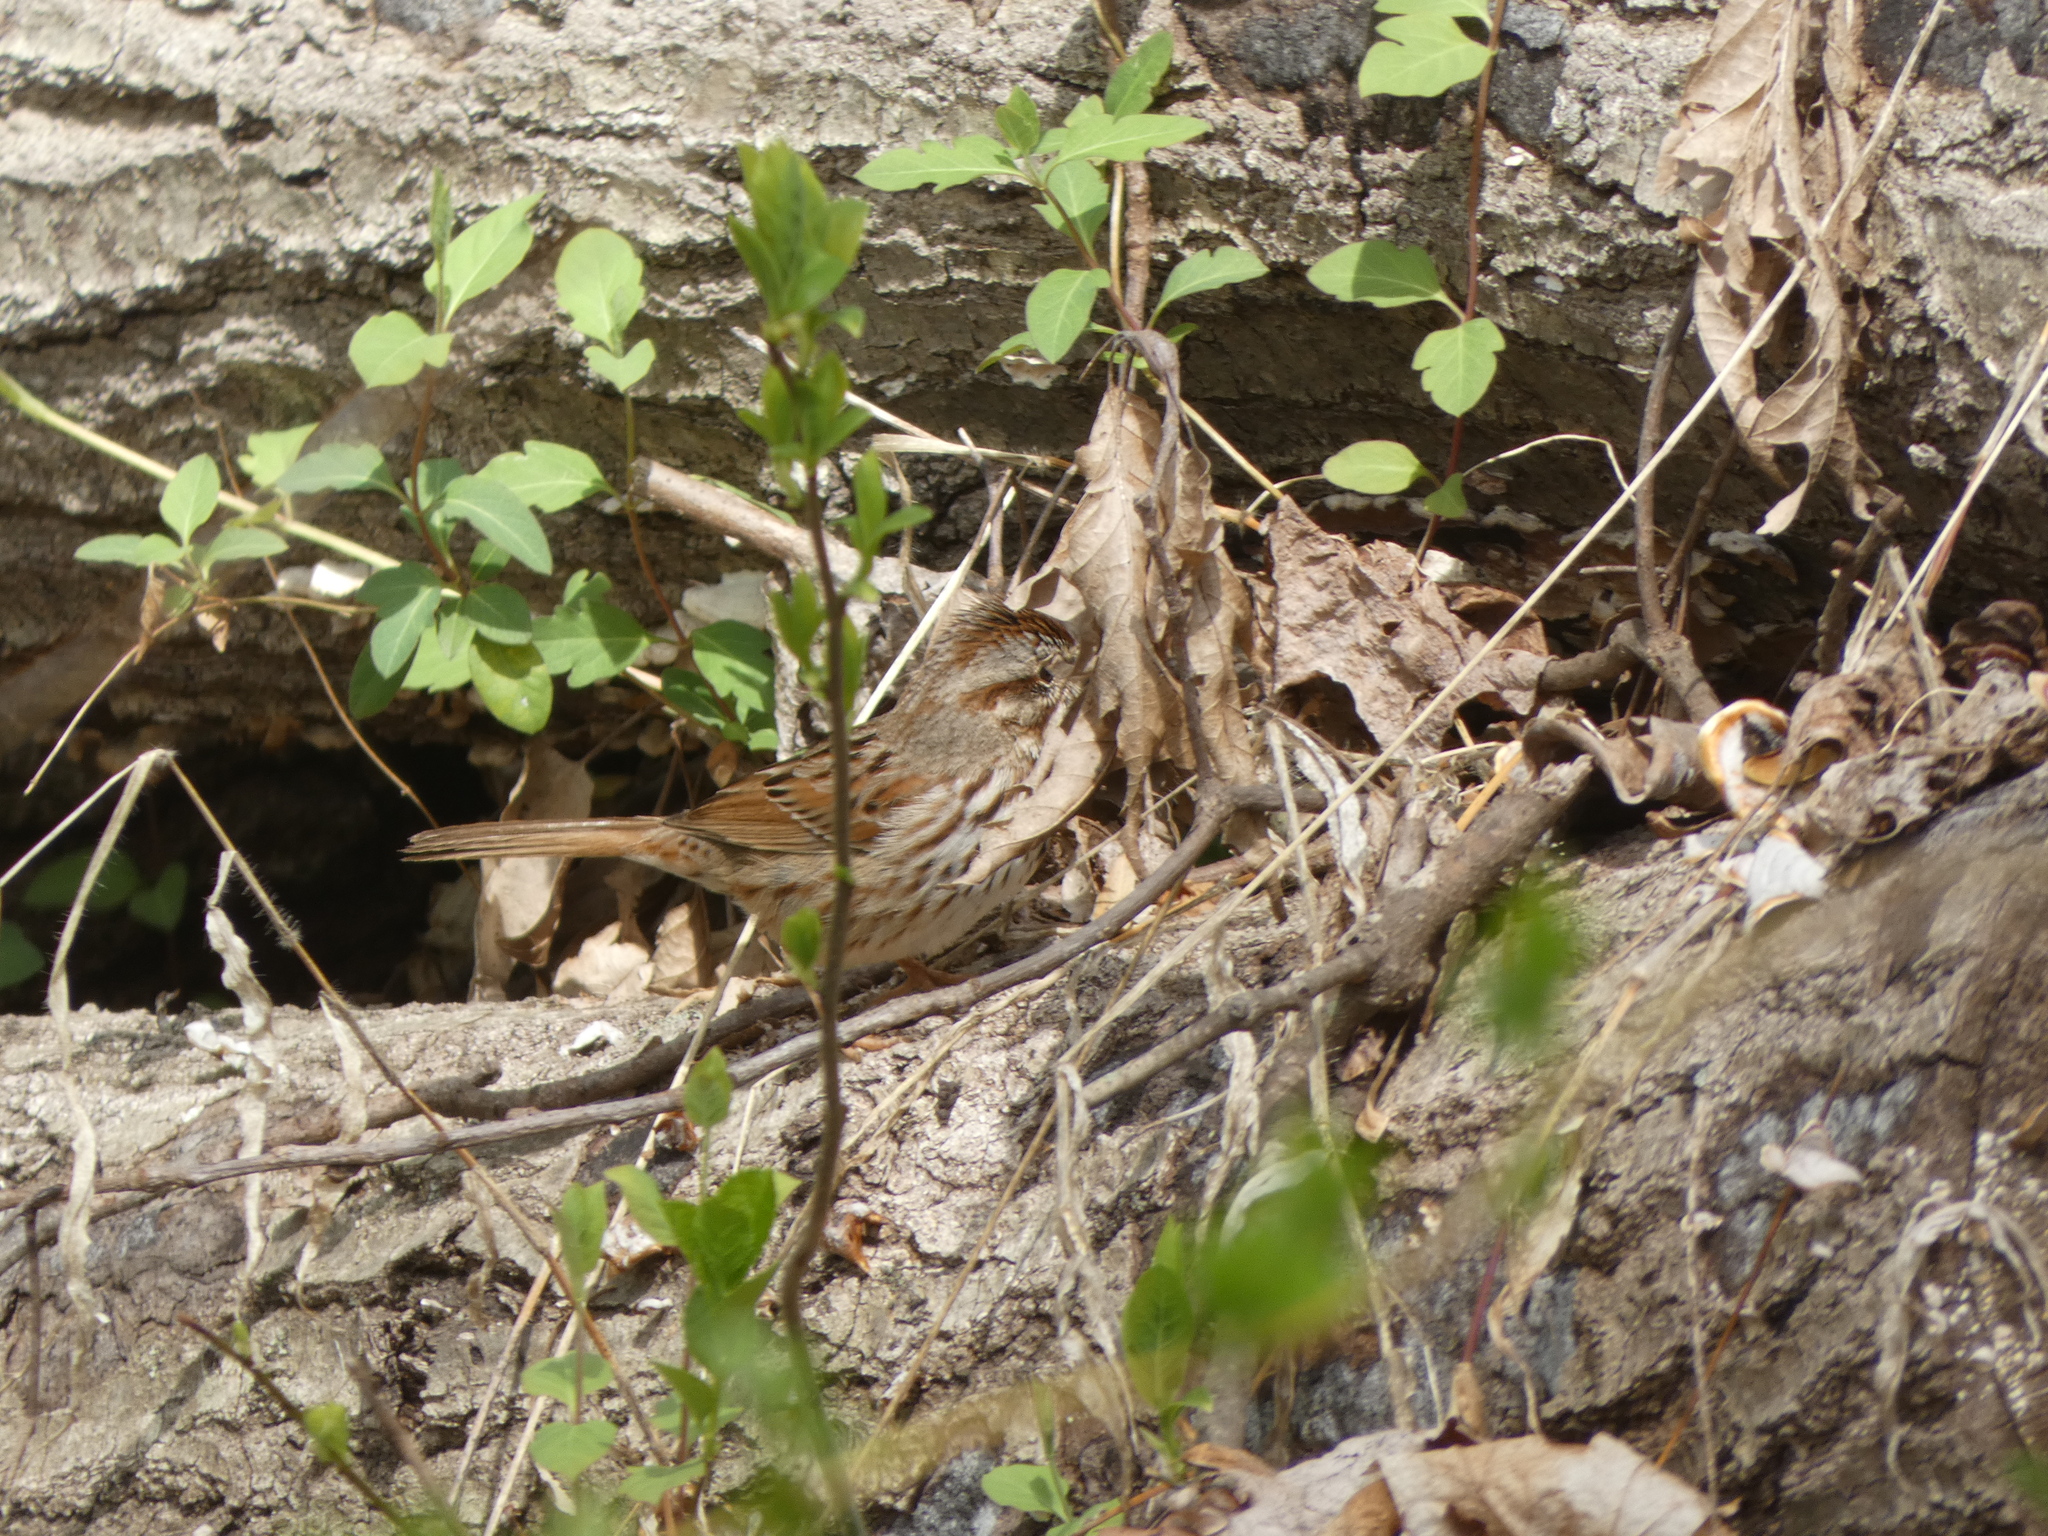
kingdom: Animalia
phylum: Chordata
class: Aves
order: Passeriformes
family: Passerellidae
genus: Melospiza
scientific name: Melospiza melodia
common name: Song sparrow
